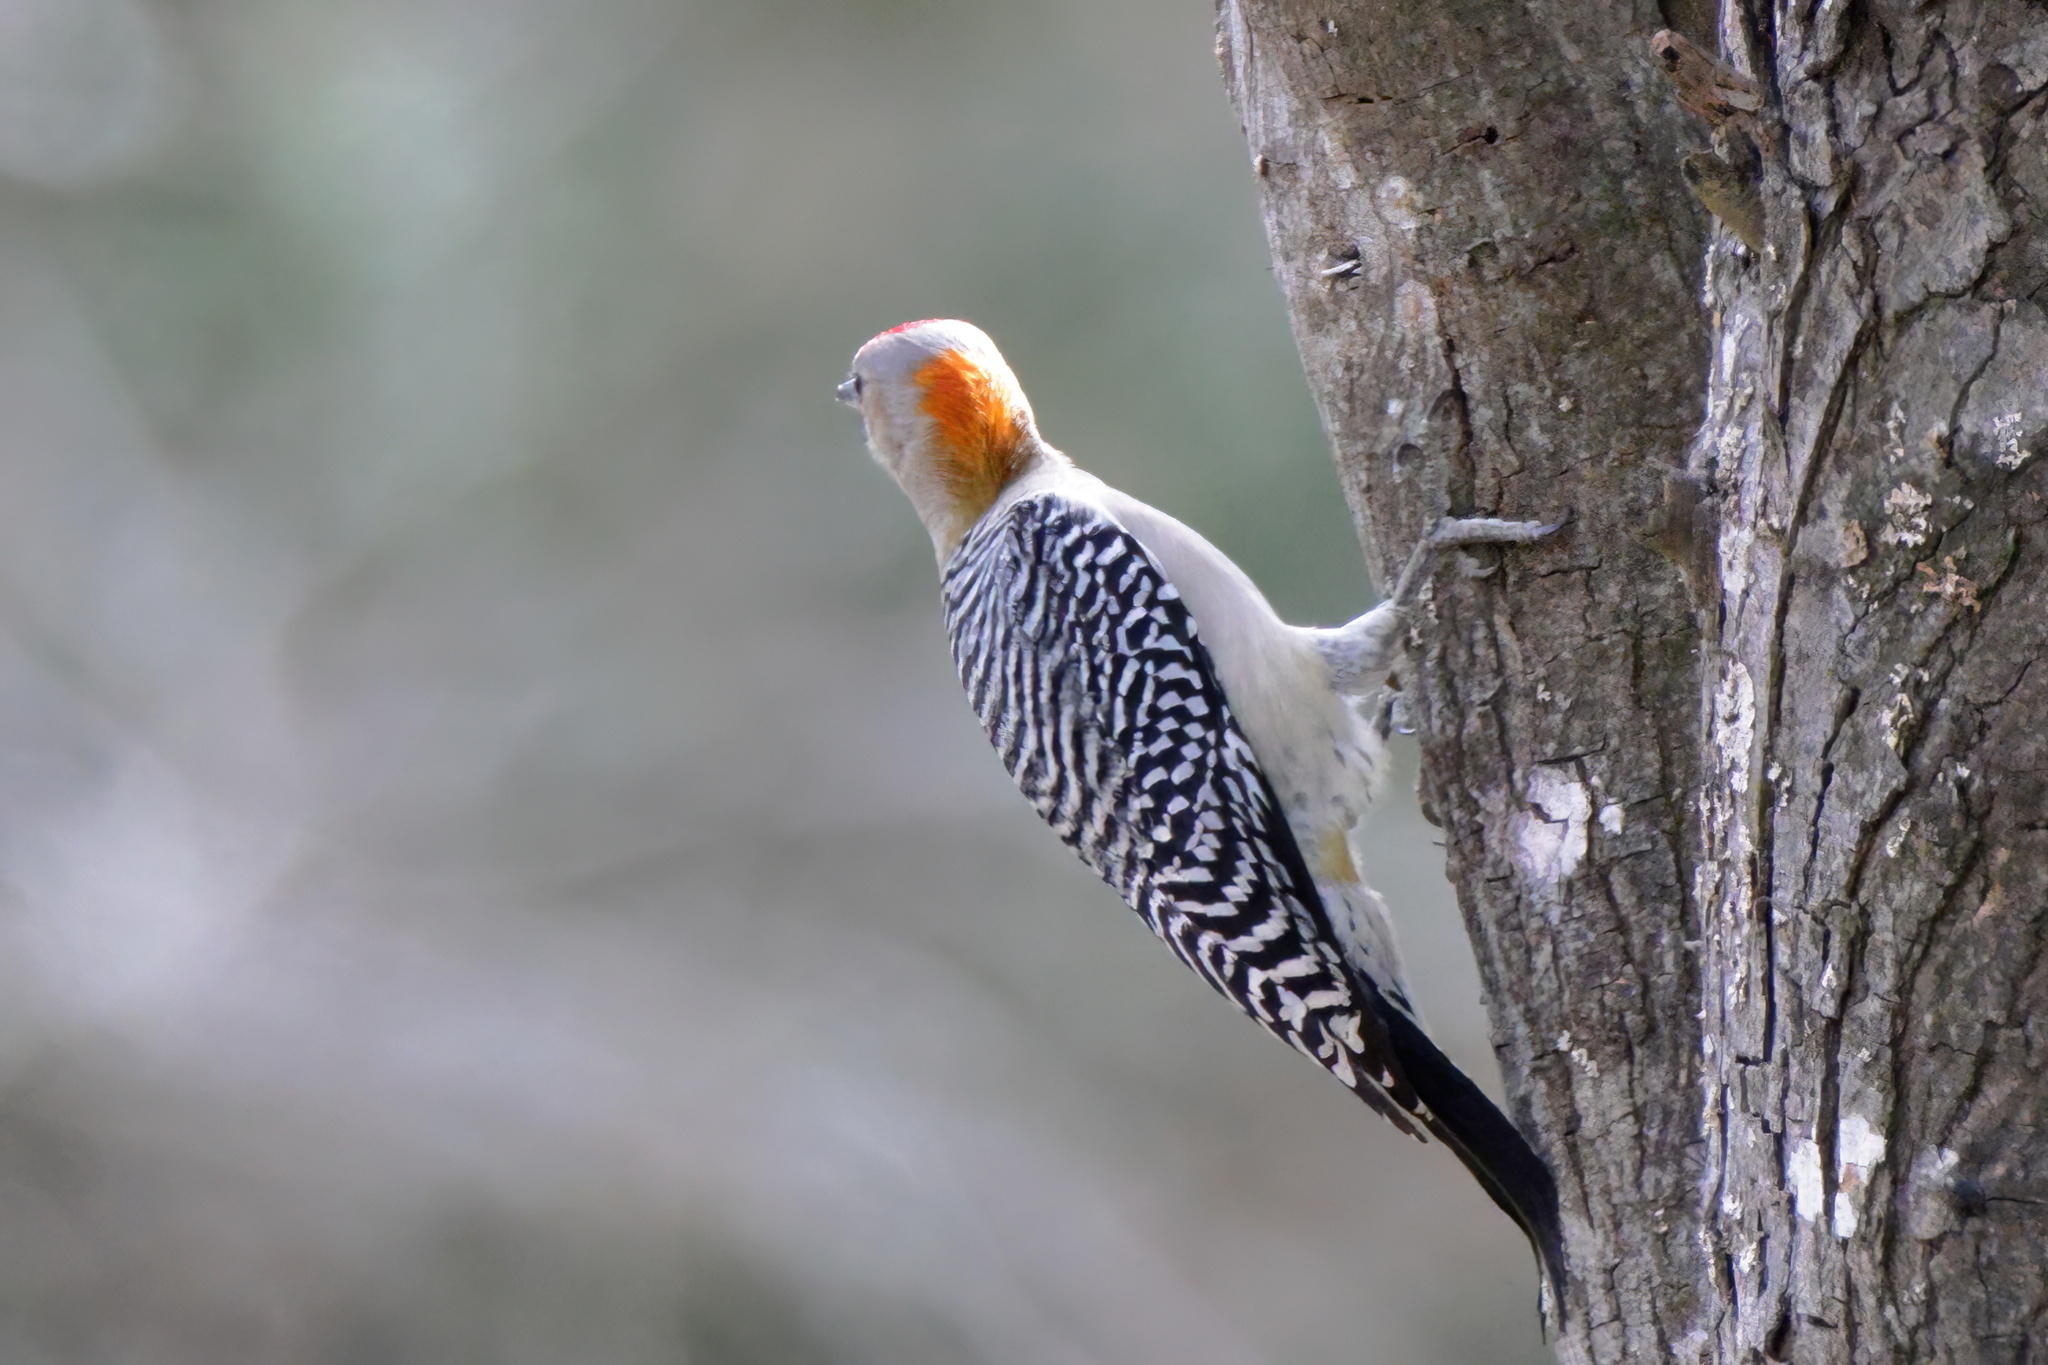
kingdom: Animalia
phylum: Chordata
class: Aves
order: Piciformes
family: Picidae
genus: Melanerpes
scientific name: Melanerpes aurifrons
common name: Golden-fronted woodpecker
